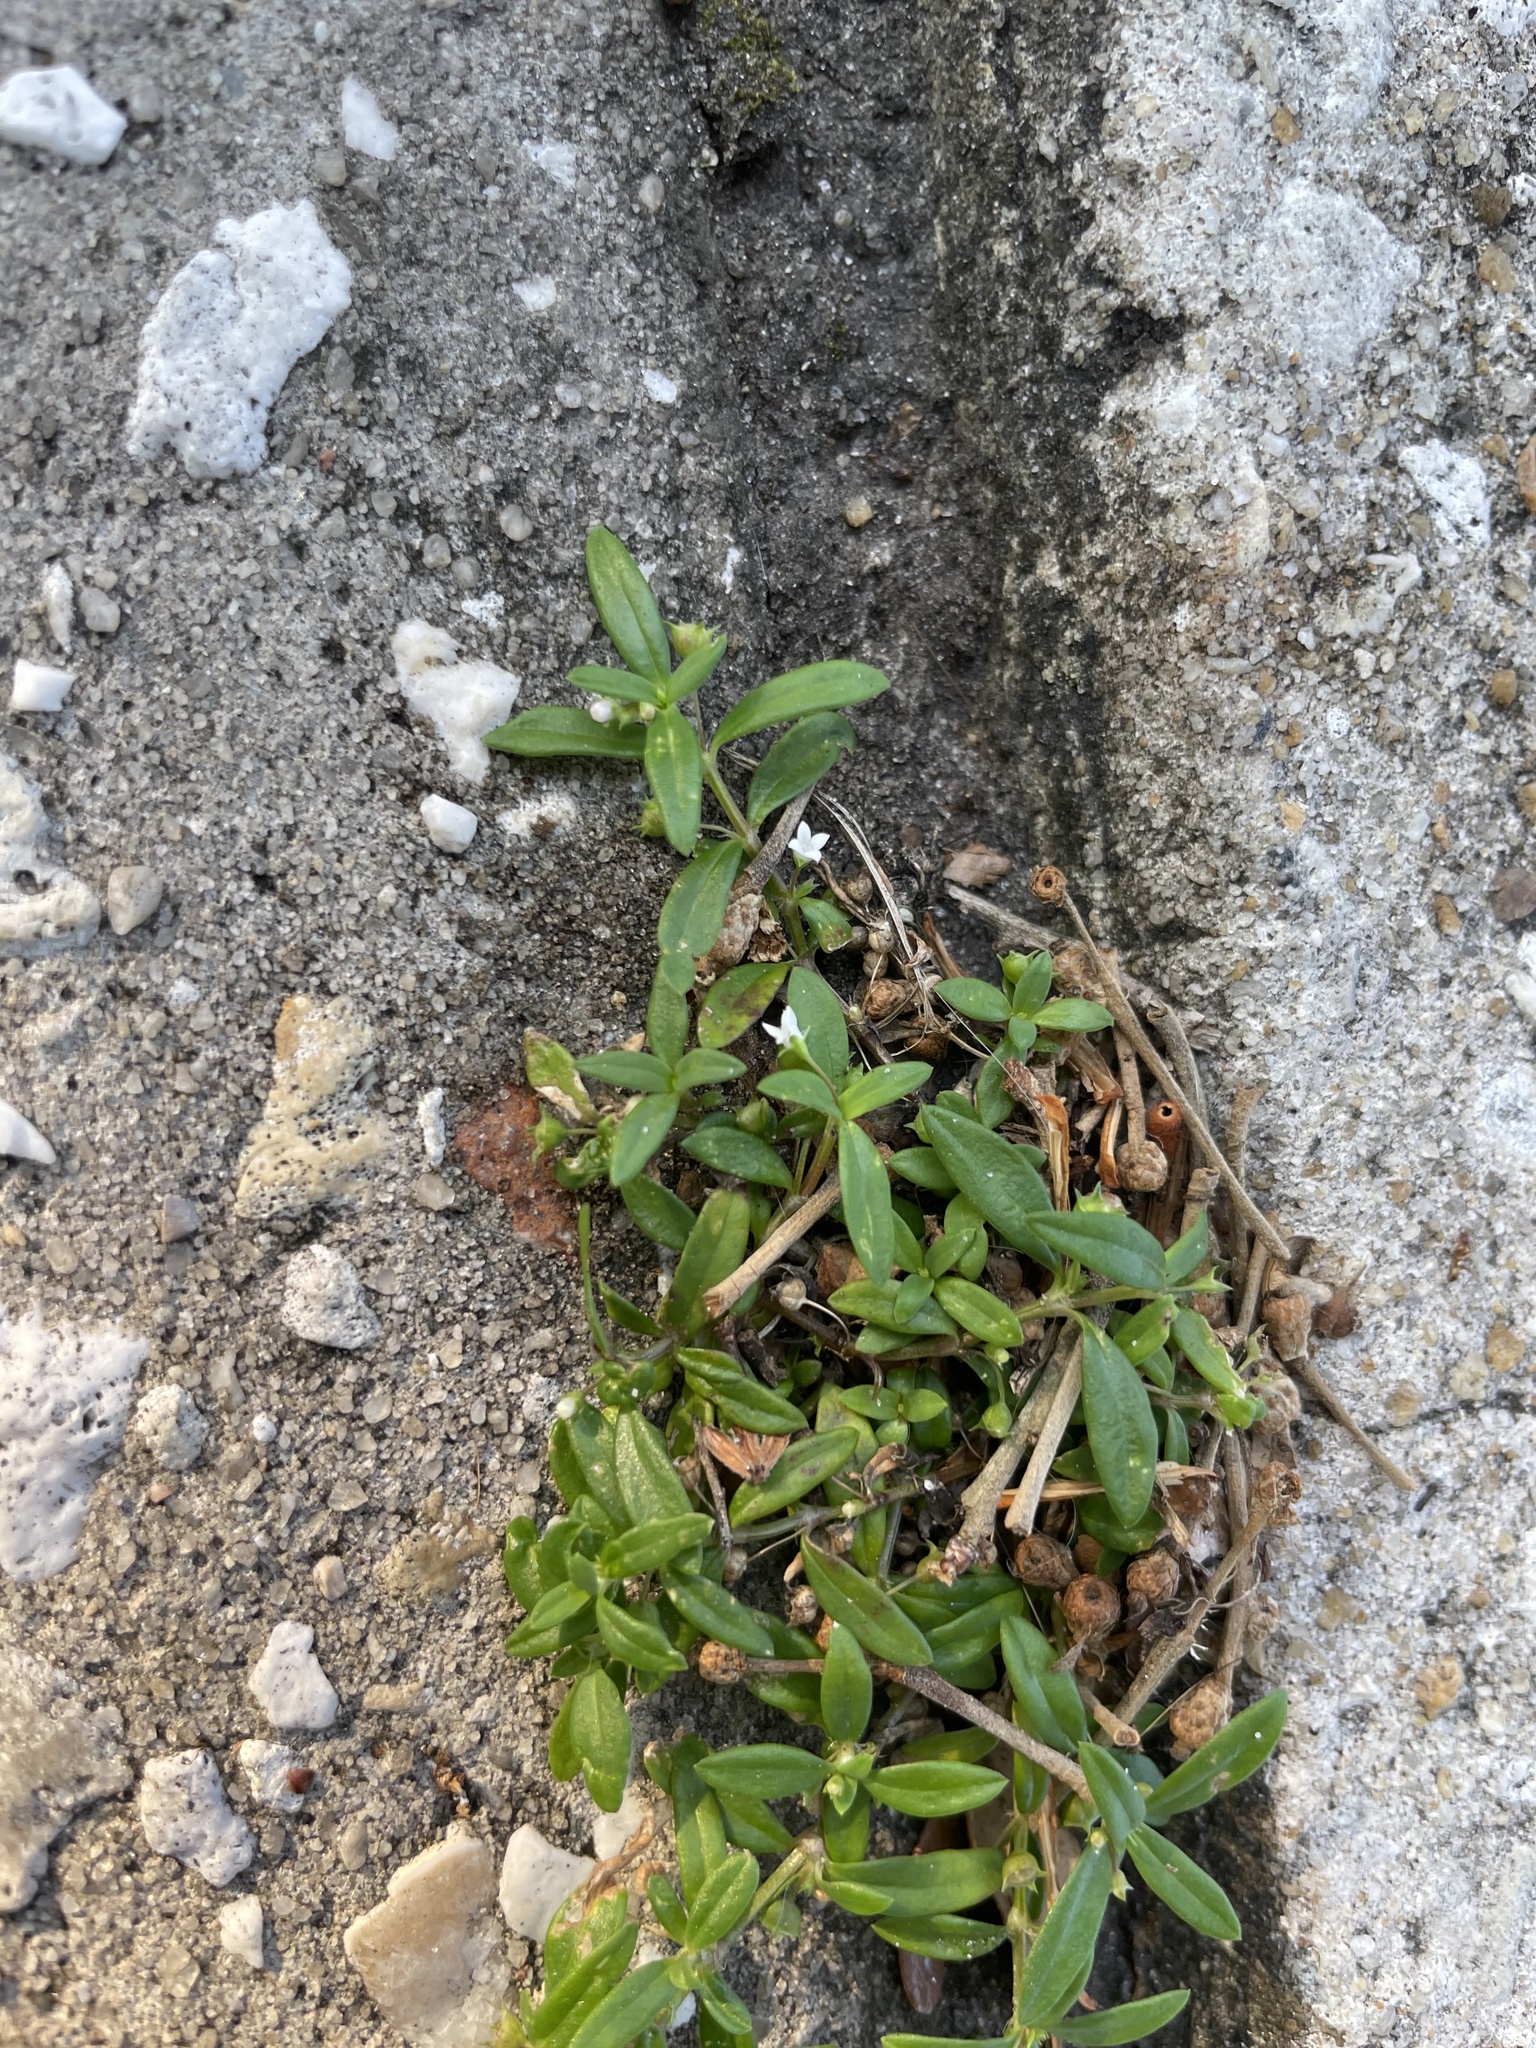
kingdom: Plantae
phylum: Tracheophyta
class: Magnoliopsida
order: Gentianales
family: Rubiaceae
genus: Oldenlandia
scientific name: Oldenlandia corymbosa
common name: Flat-top mille graines
